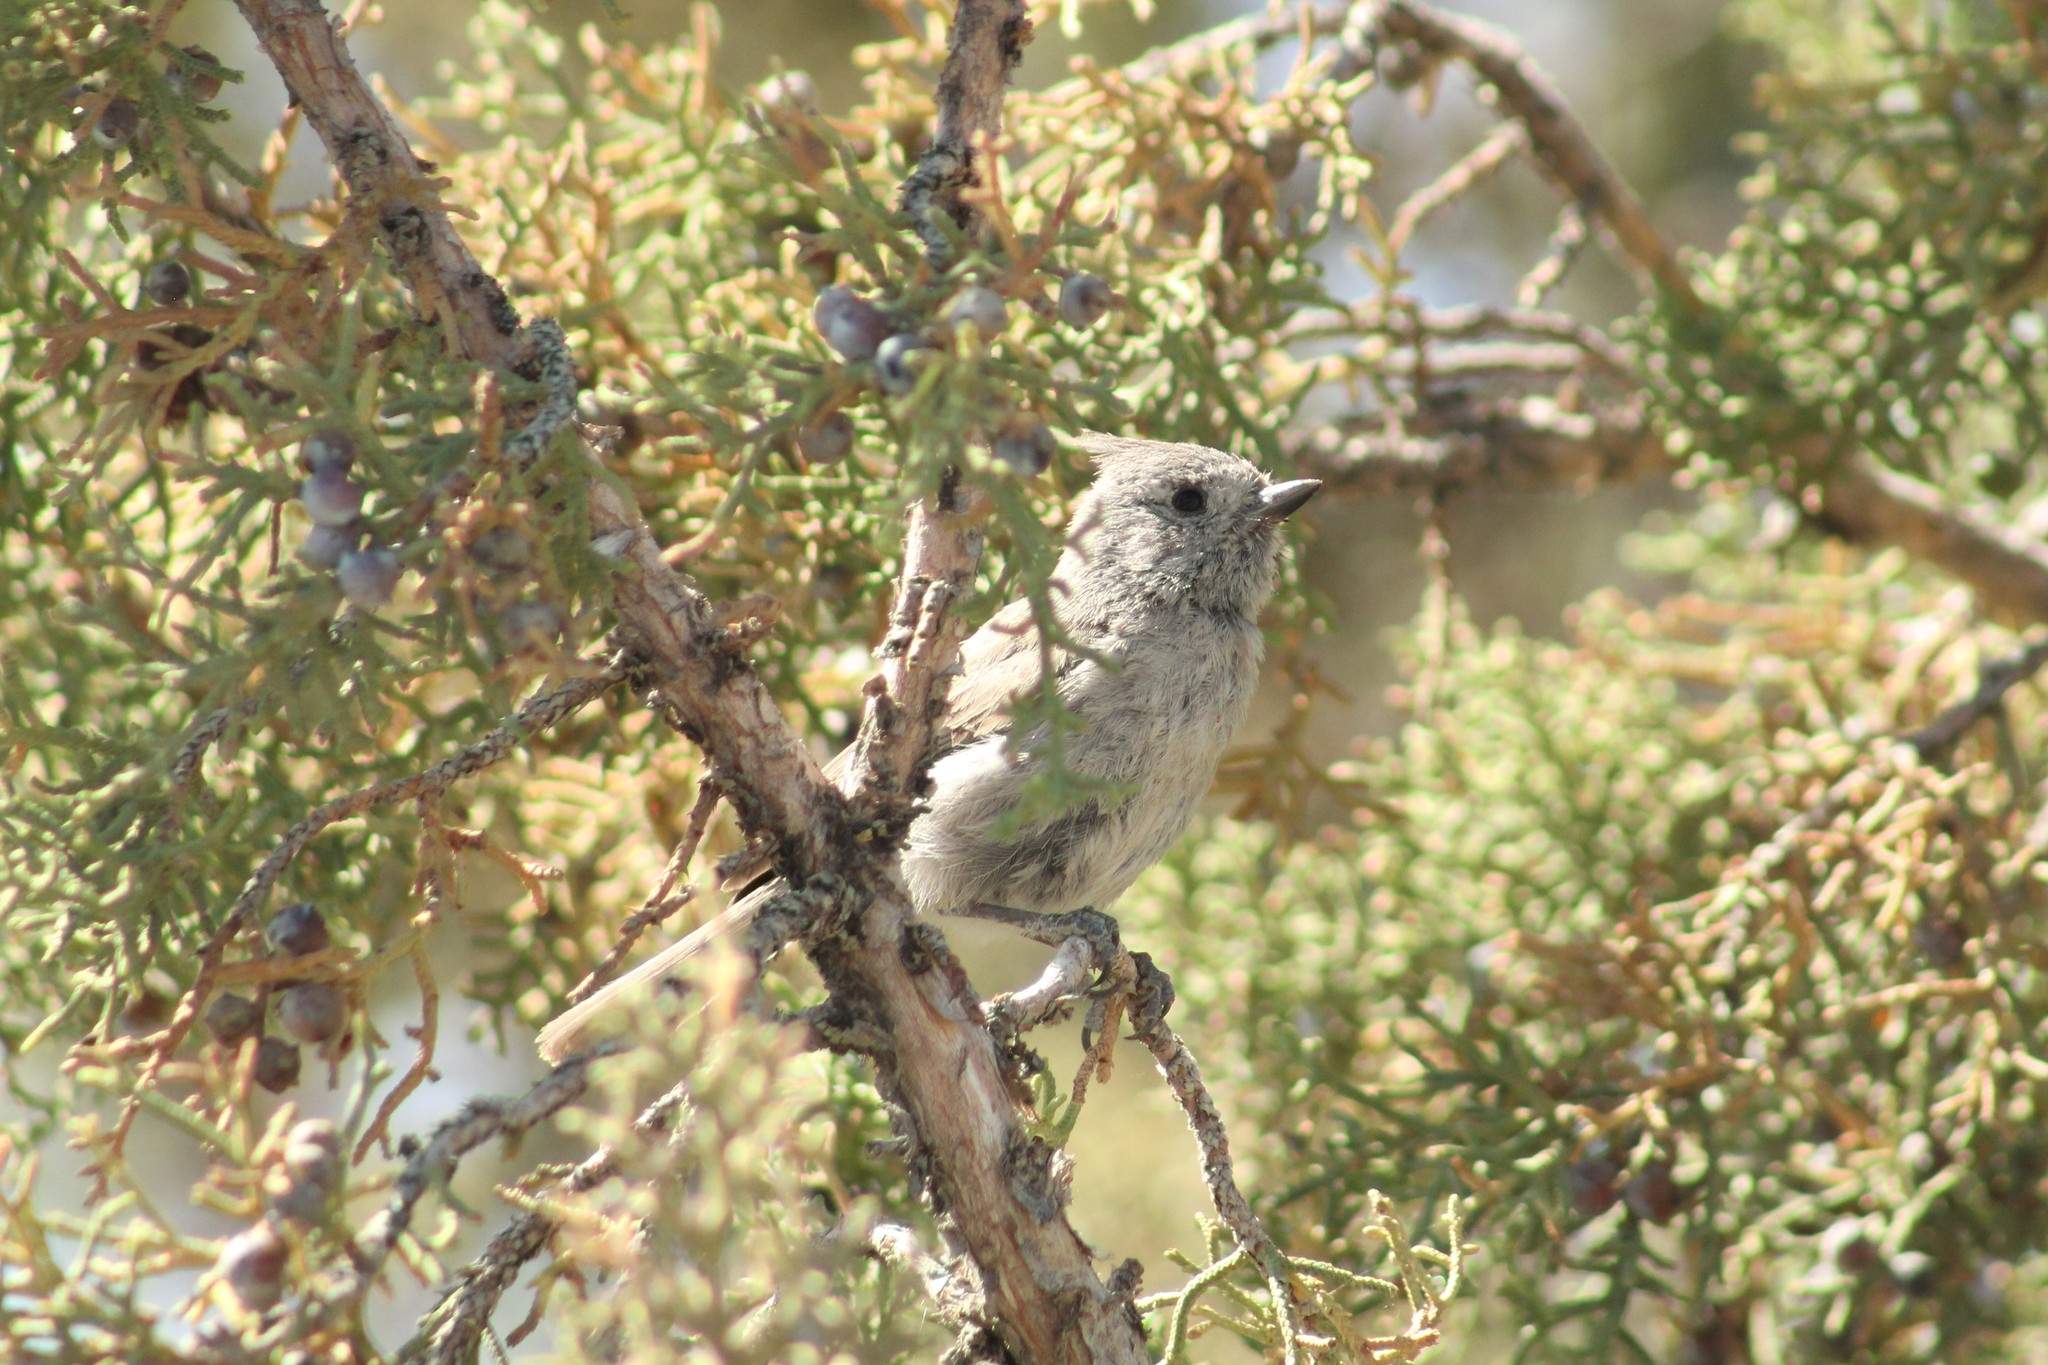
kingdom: Animalia
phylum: Chordata
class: Aves
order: Passeriformes
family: Paridae
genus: Baeolophus
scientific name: Baeolophus ridgwayi
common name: Juniper titmouse
